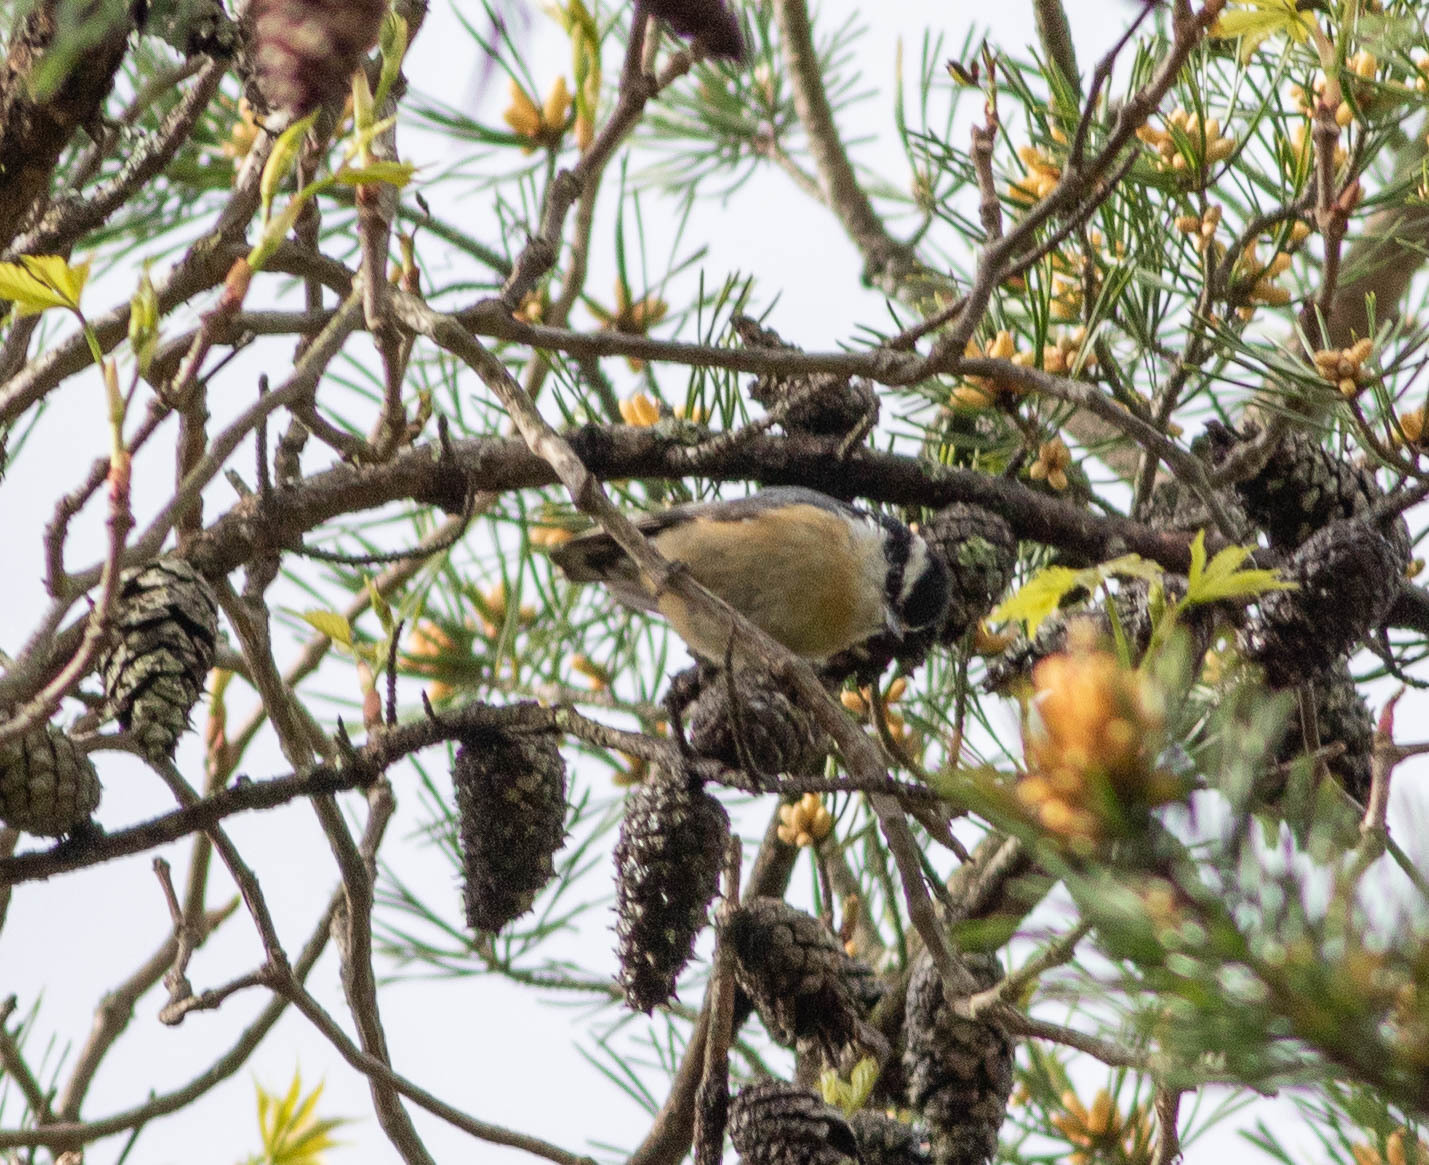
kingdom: Animalia
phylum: Chordata
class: Aves
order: Passeriformes
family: Sittidae
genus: Sitta
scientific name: Sitta canadensis
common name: Red-breasted nuthatch
